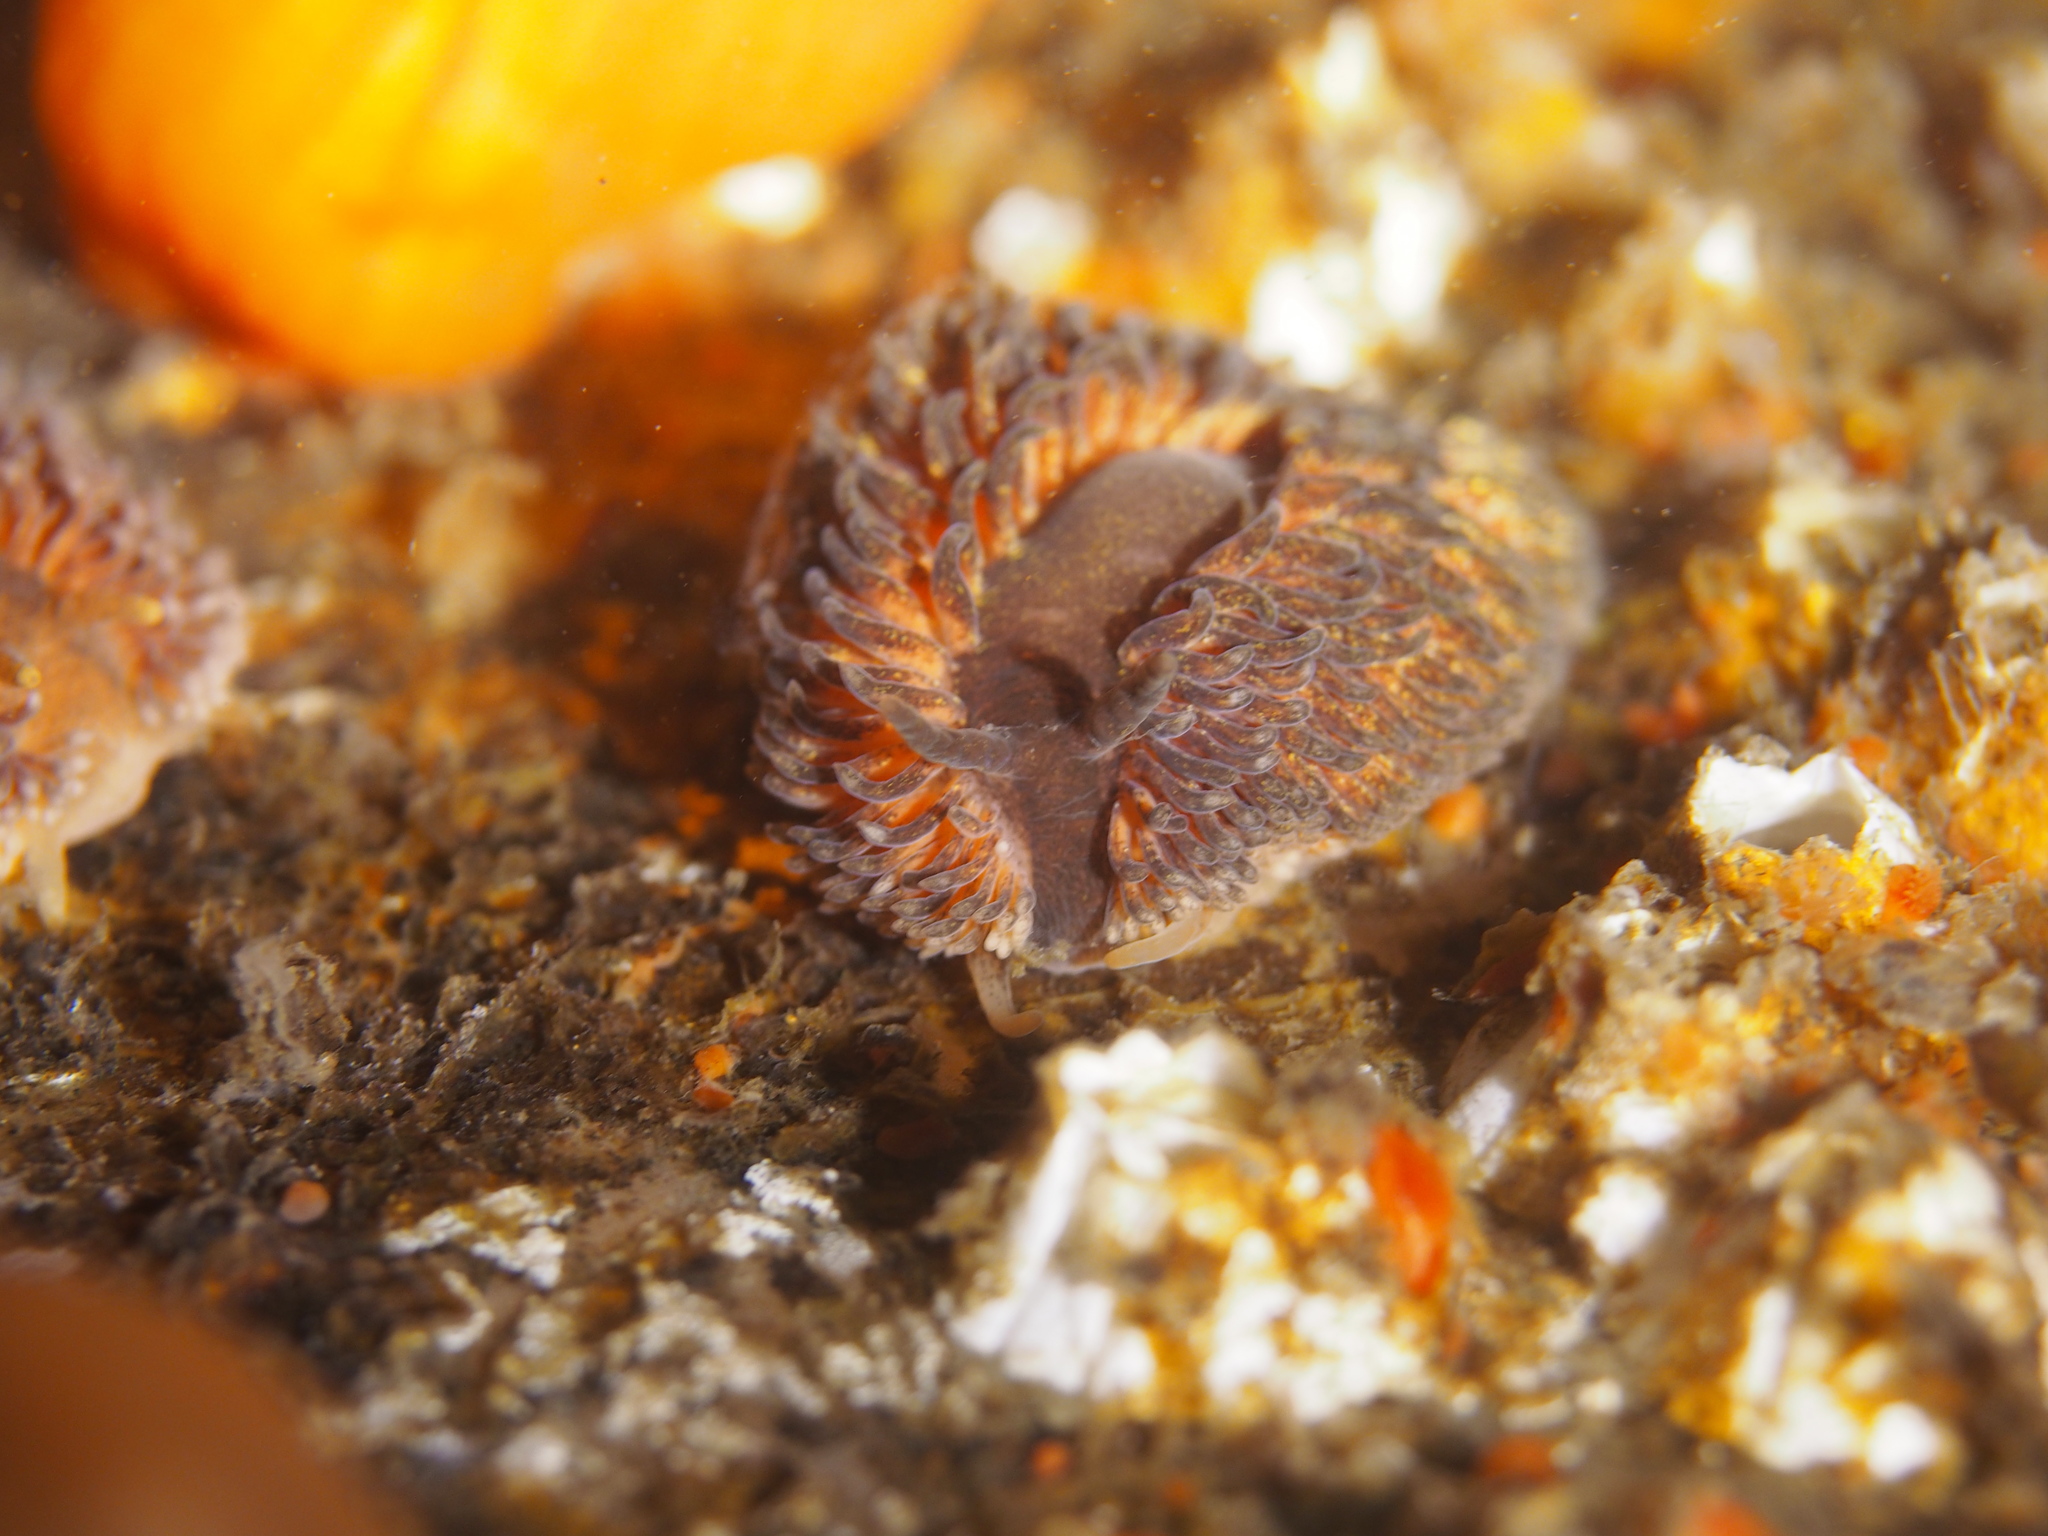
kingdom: Animalia
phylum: Mollusca
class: Gastropoda
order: Nudibranchia
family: Aeolidiidae
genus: Aeolidia
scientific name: Aeolidia papillosa
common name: Common grey sea slug
